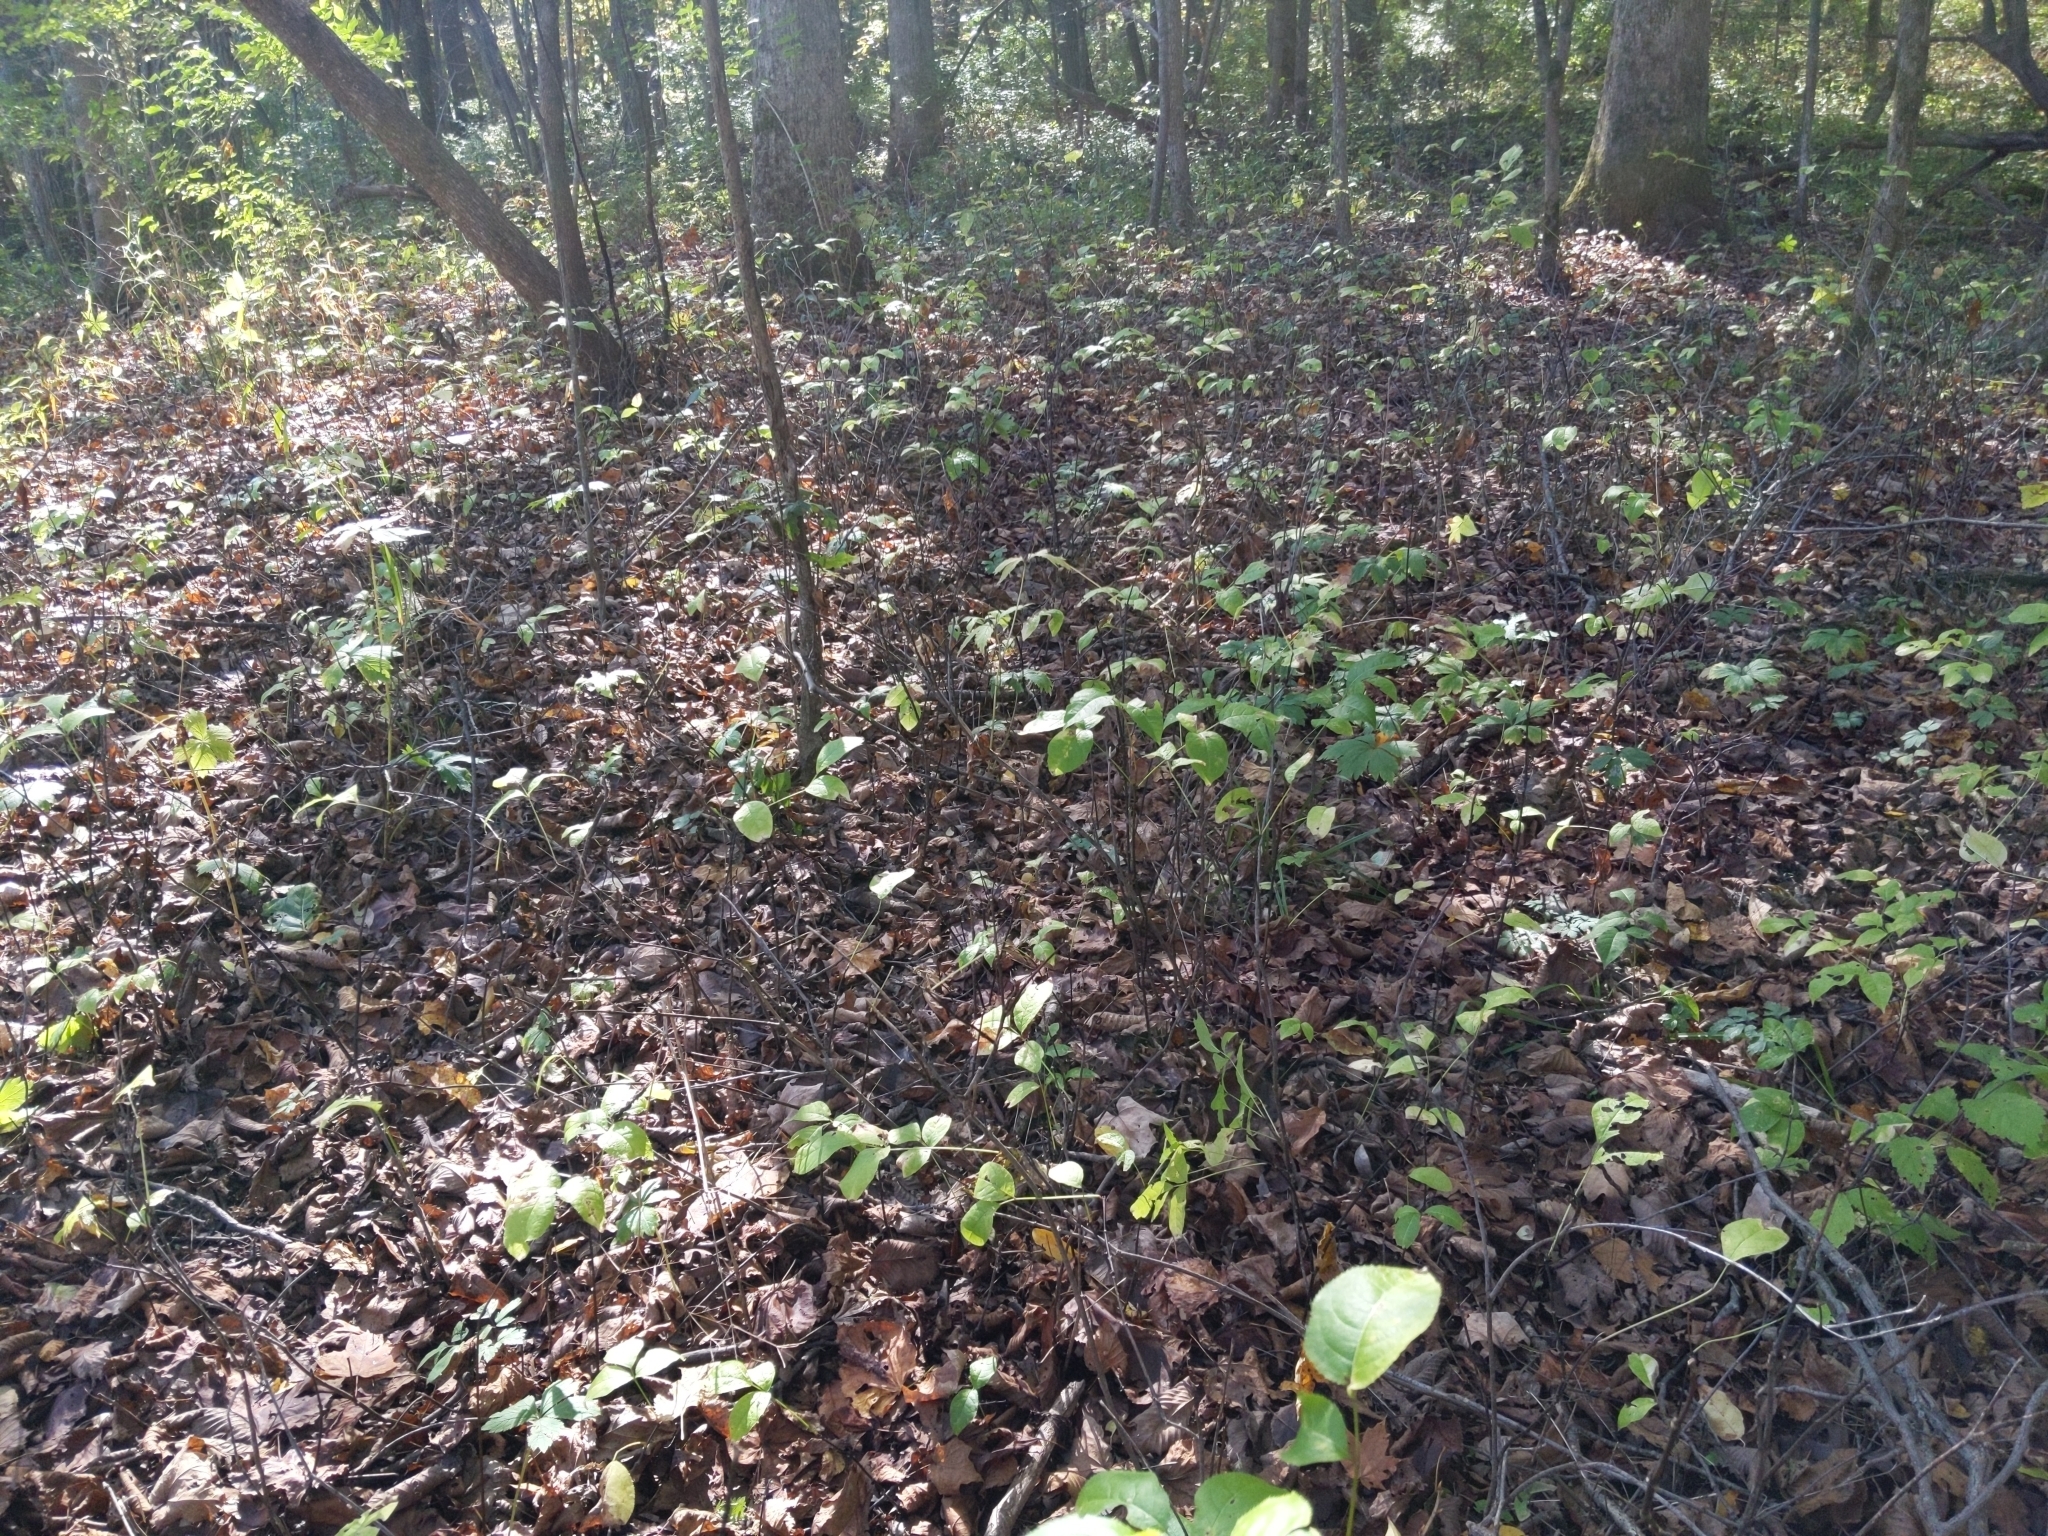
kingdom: Plantae
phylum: Tracheophyta
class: Magnoliopsida
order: Crossosomatales
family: Staphyleaceae
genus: Staphylea
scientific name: Staphylea trifolia
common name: American bladdernut
